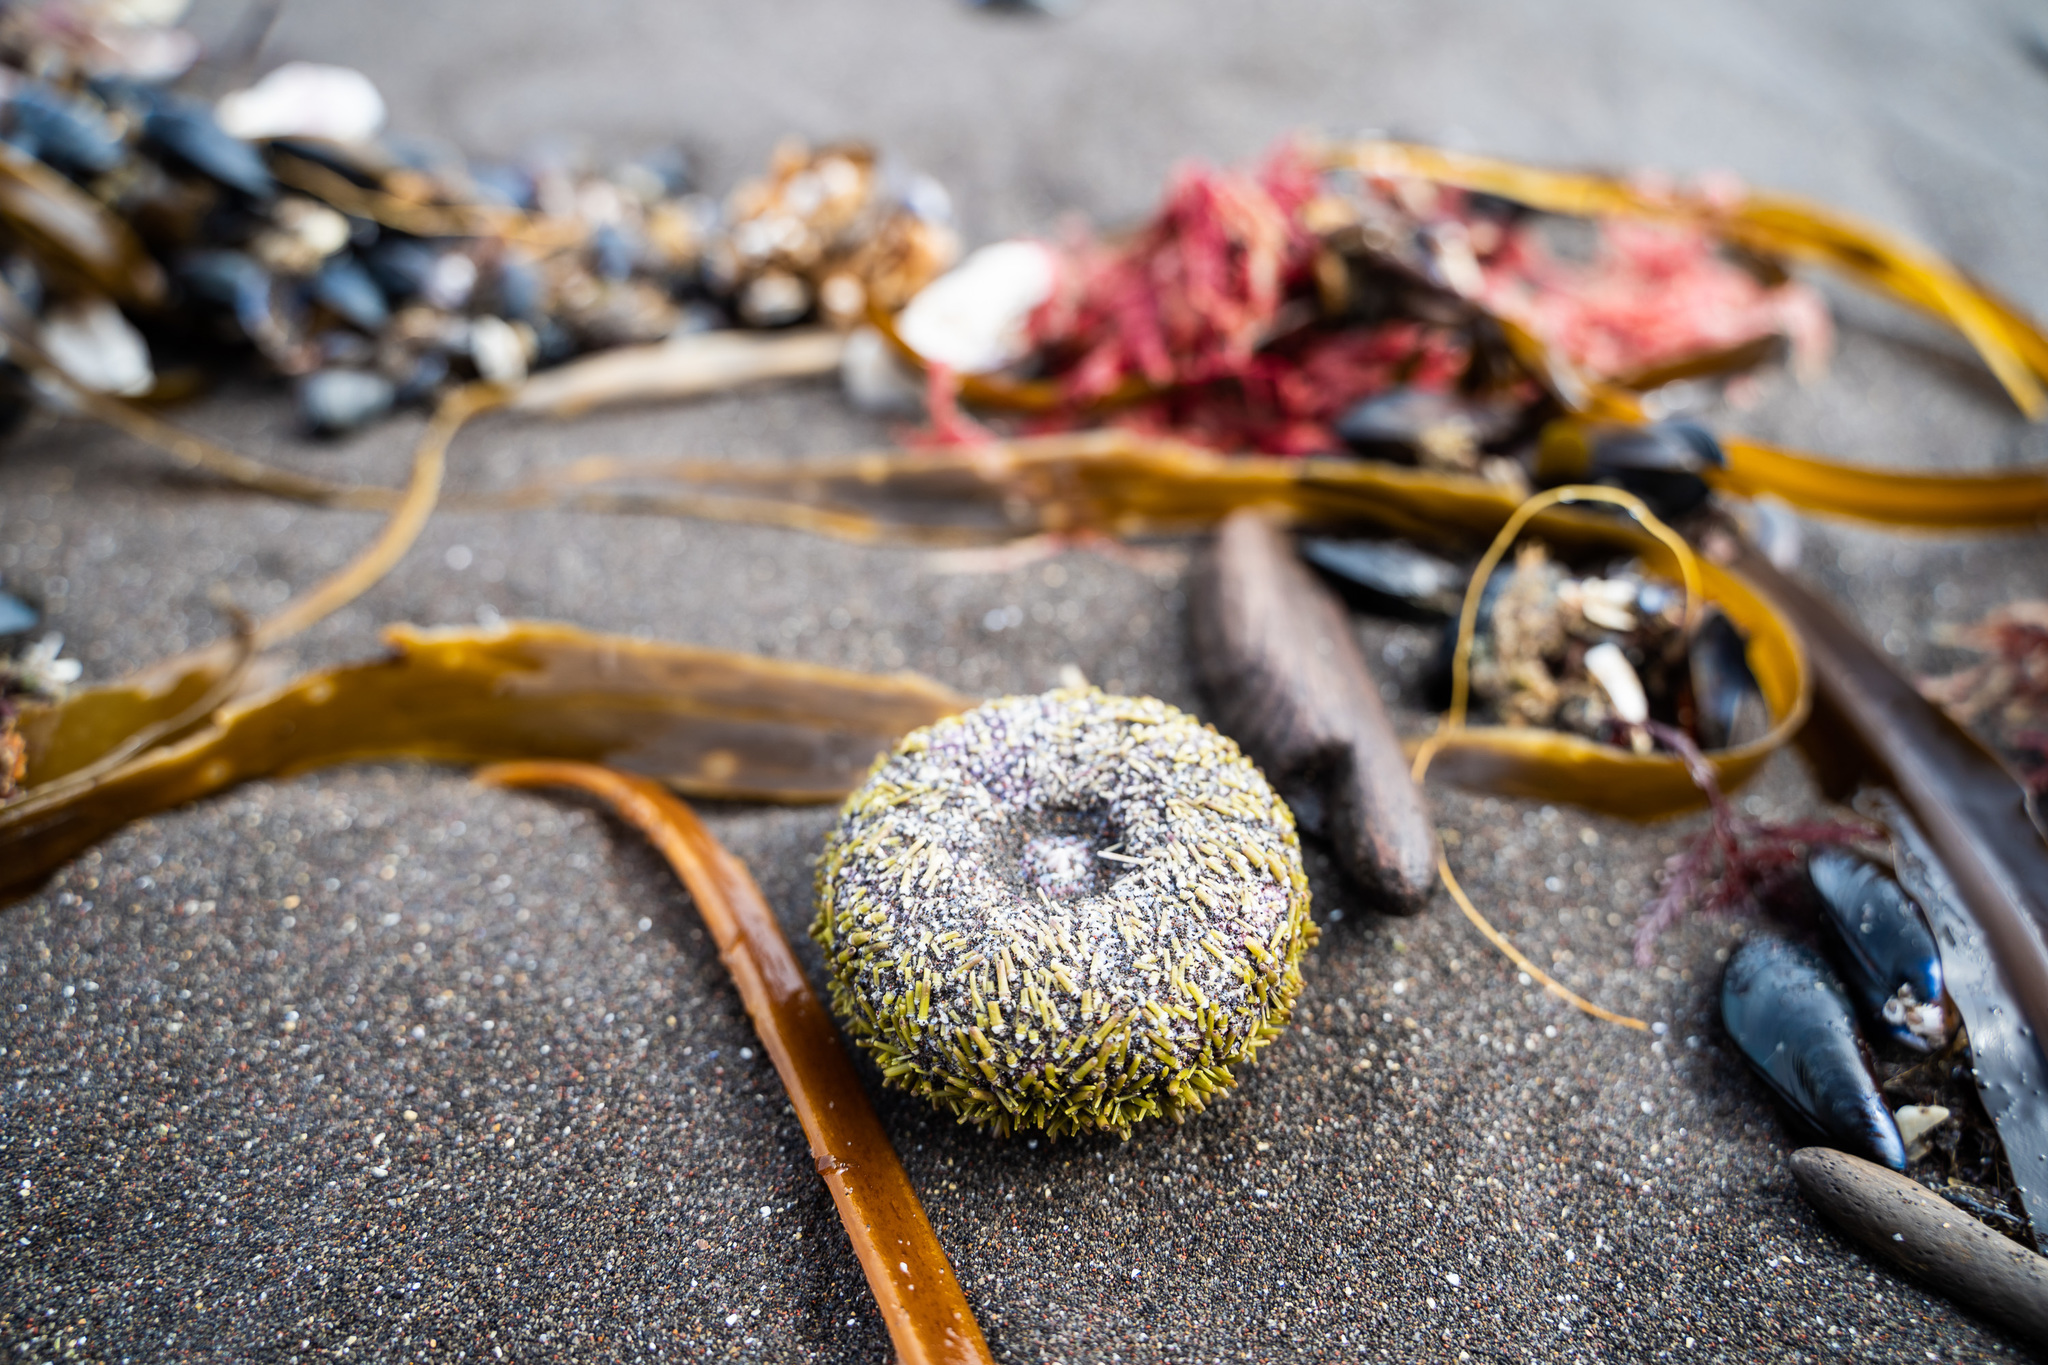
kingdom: Animalia
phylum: Echinodermata
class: Echinoidea
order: Camarodonta
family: Strongylocentrotidae
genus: Strongylocentrotus
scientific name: Strongylocentrotus droebachiensis
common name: Northern sea urchin
